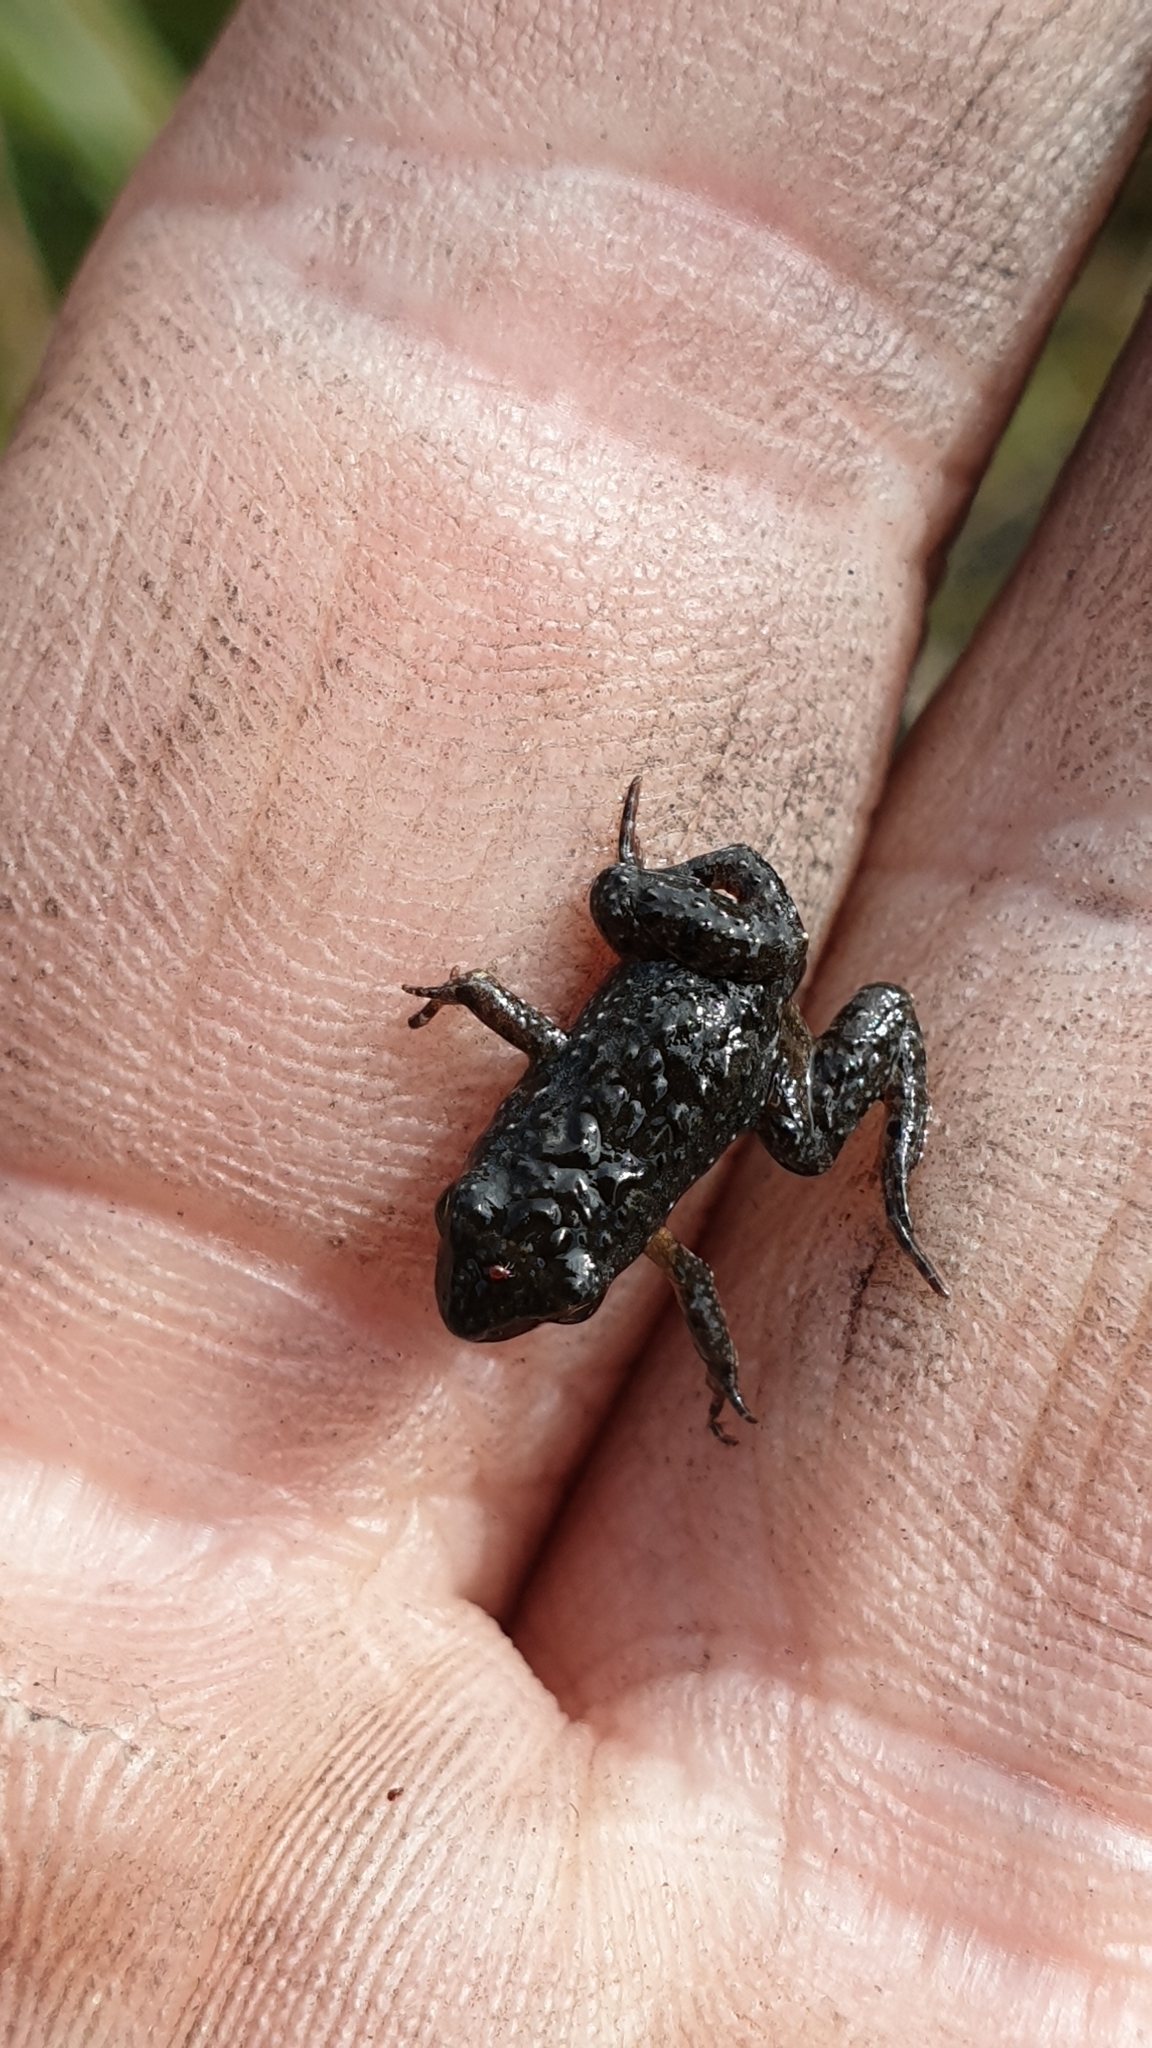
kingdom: Animalia
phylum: Chordata
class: Amphibia
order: Anura
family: Myobatrachidae
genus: Crinia
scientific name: Crinia signifera
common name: Brown froglet
